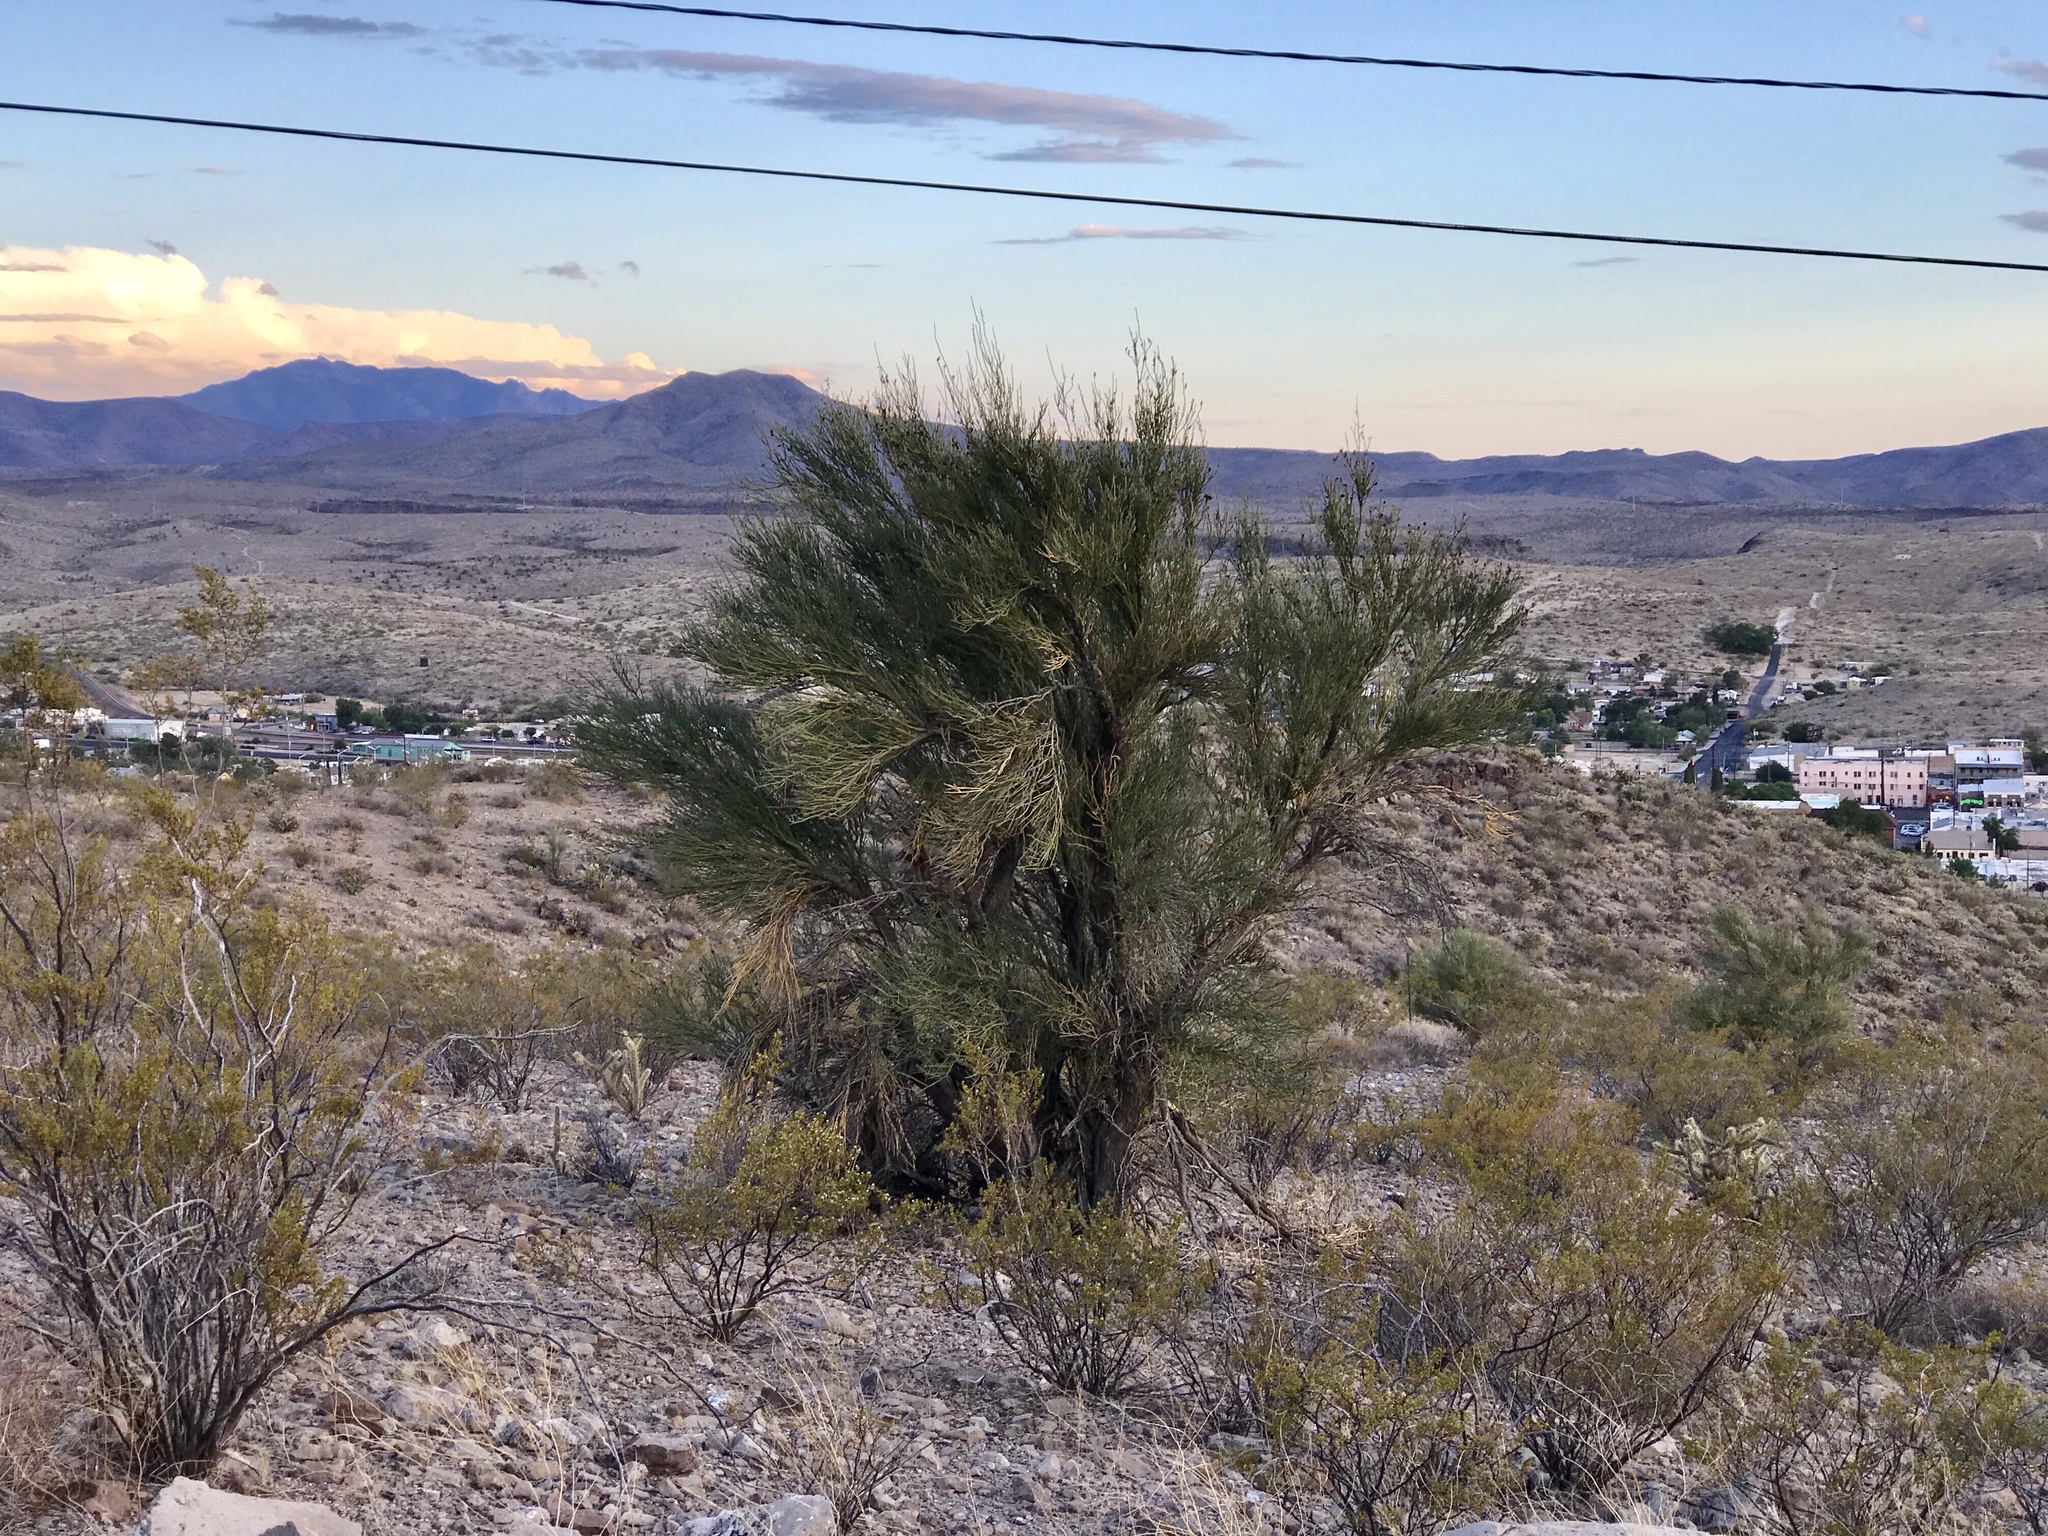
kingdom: Plantae
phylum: Tracheophyta
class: Magnoliopsida
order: Celastrales
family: Celastraceae
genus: Canotia
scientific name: Canotia holacantha
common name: Crucifixion thorns
